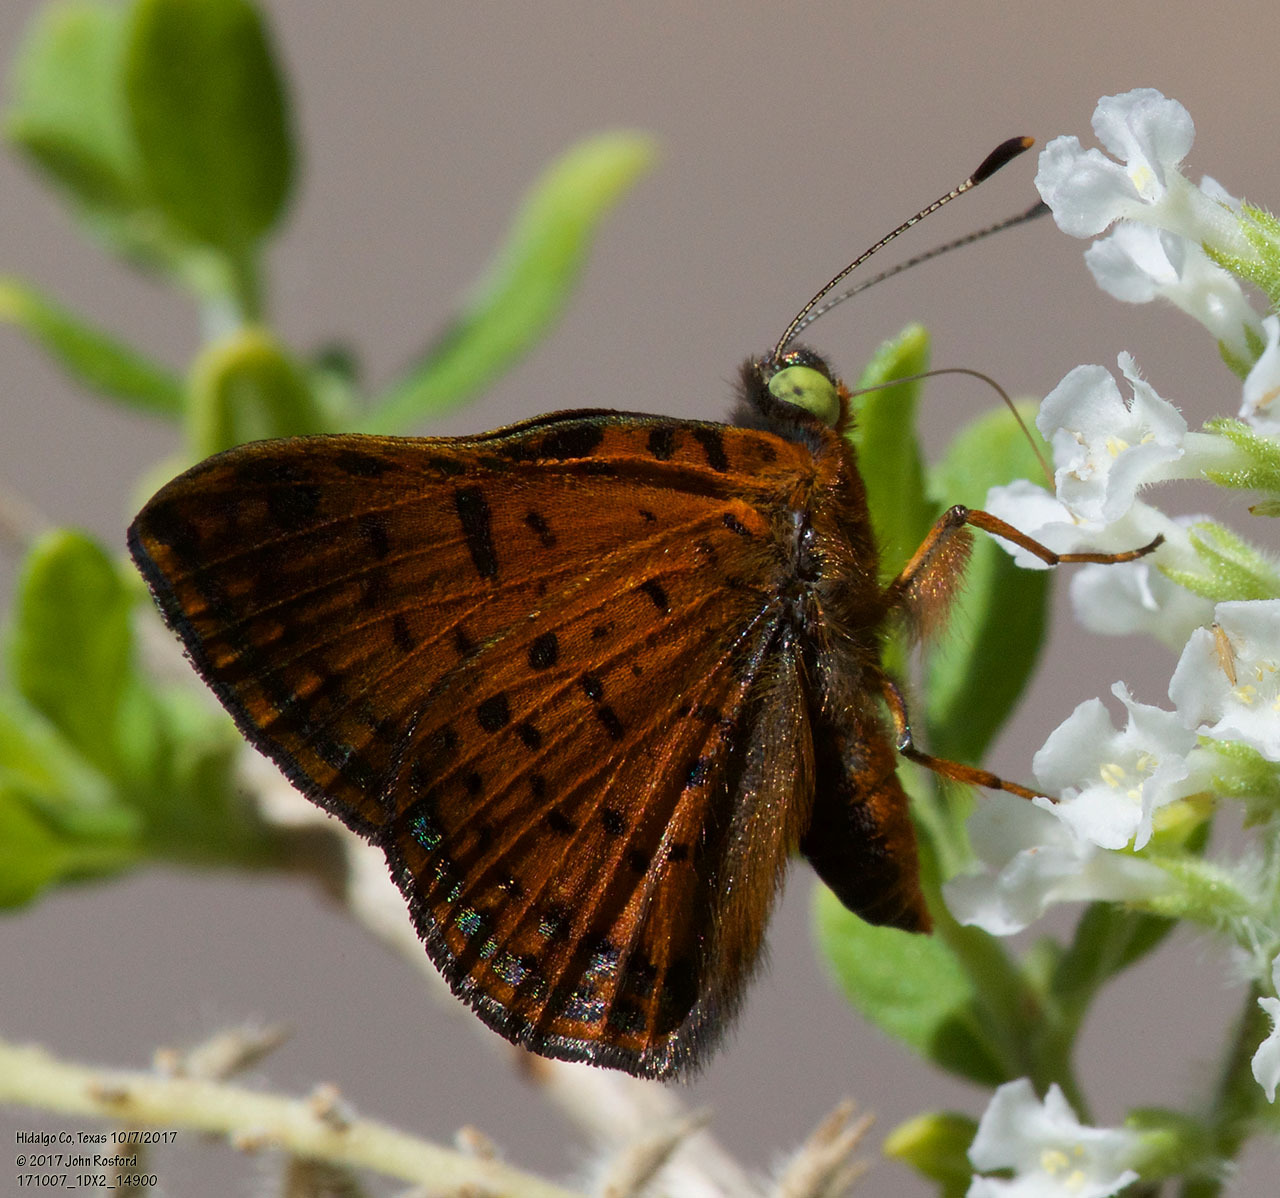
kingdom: Animalia
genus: Caria
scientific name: Caria ino
